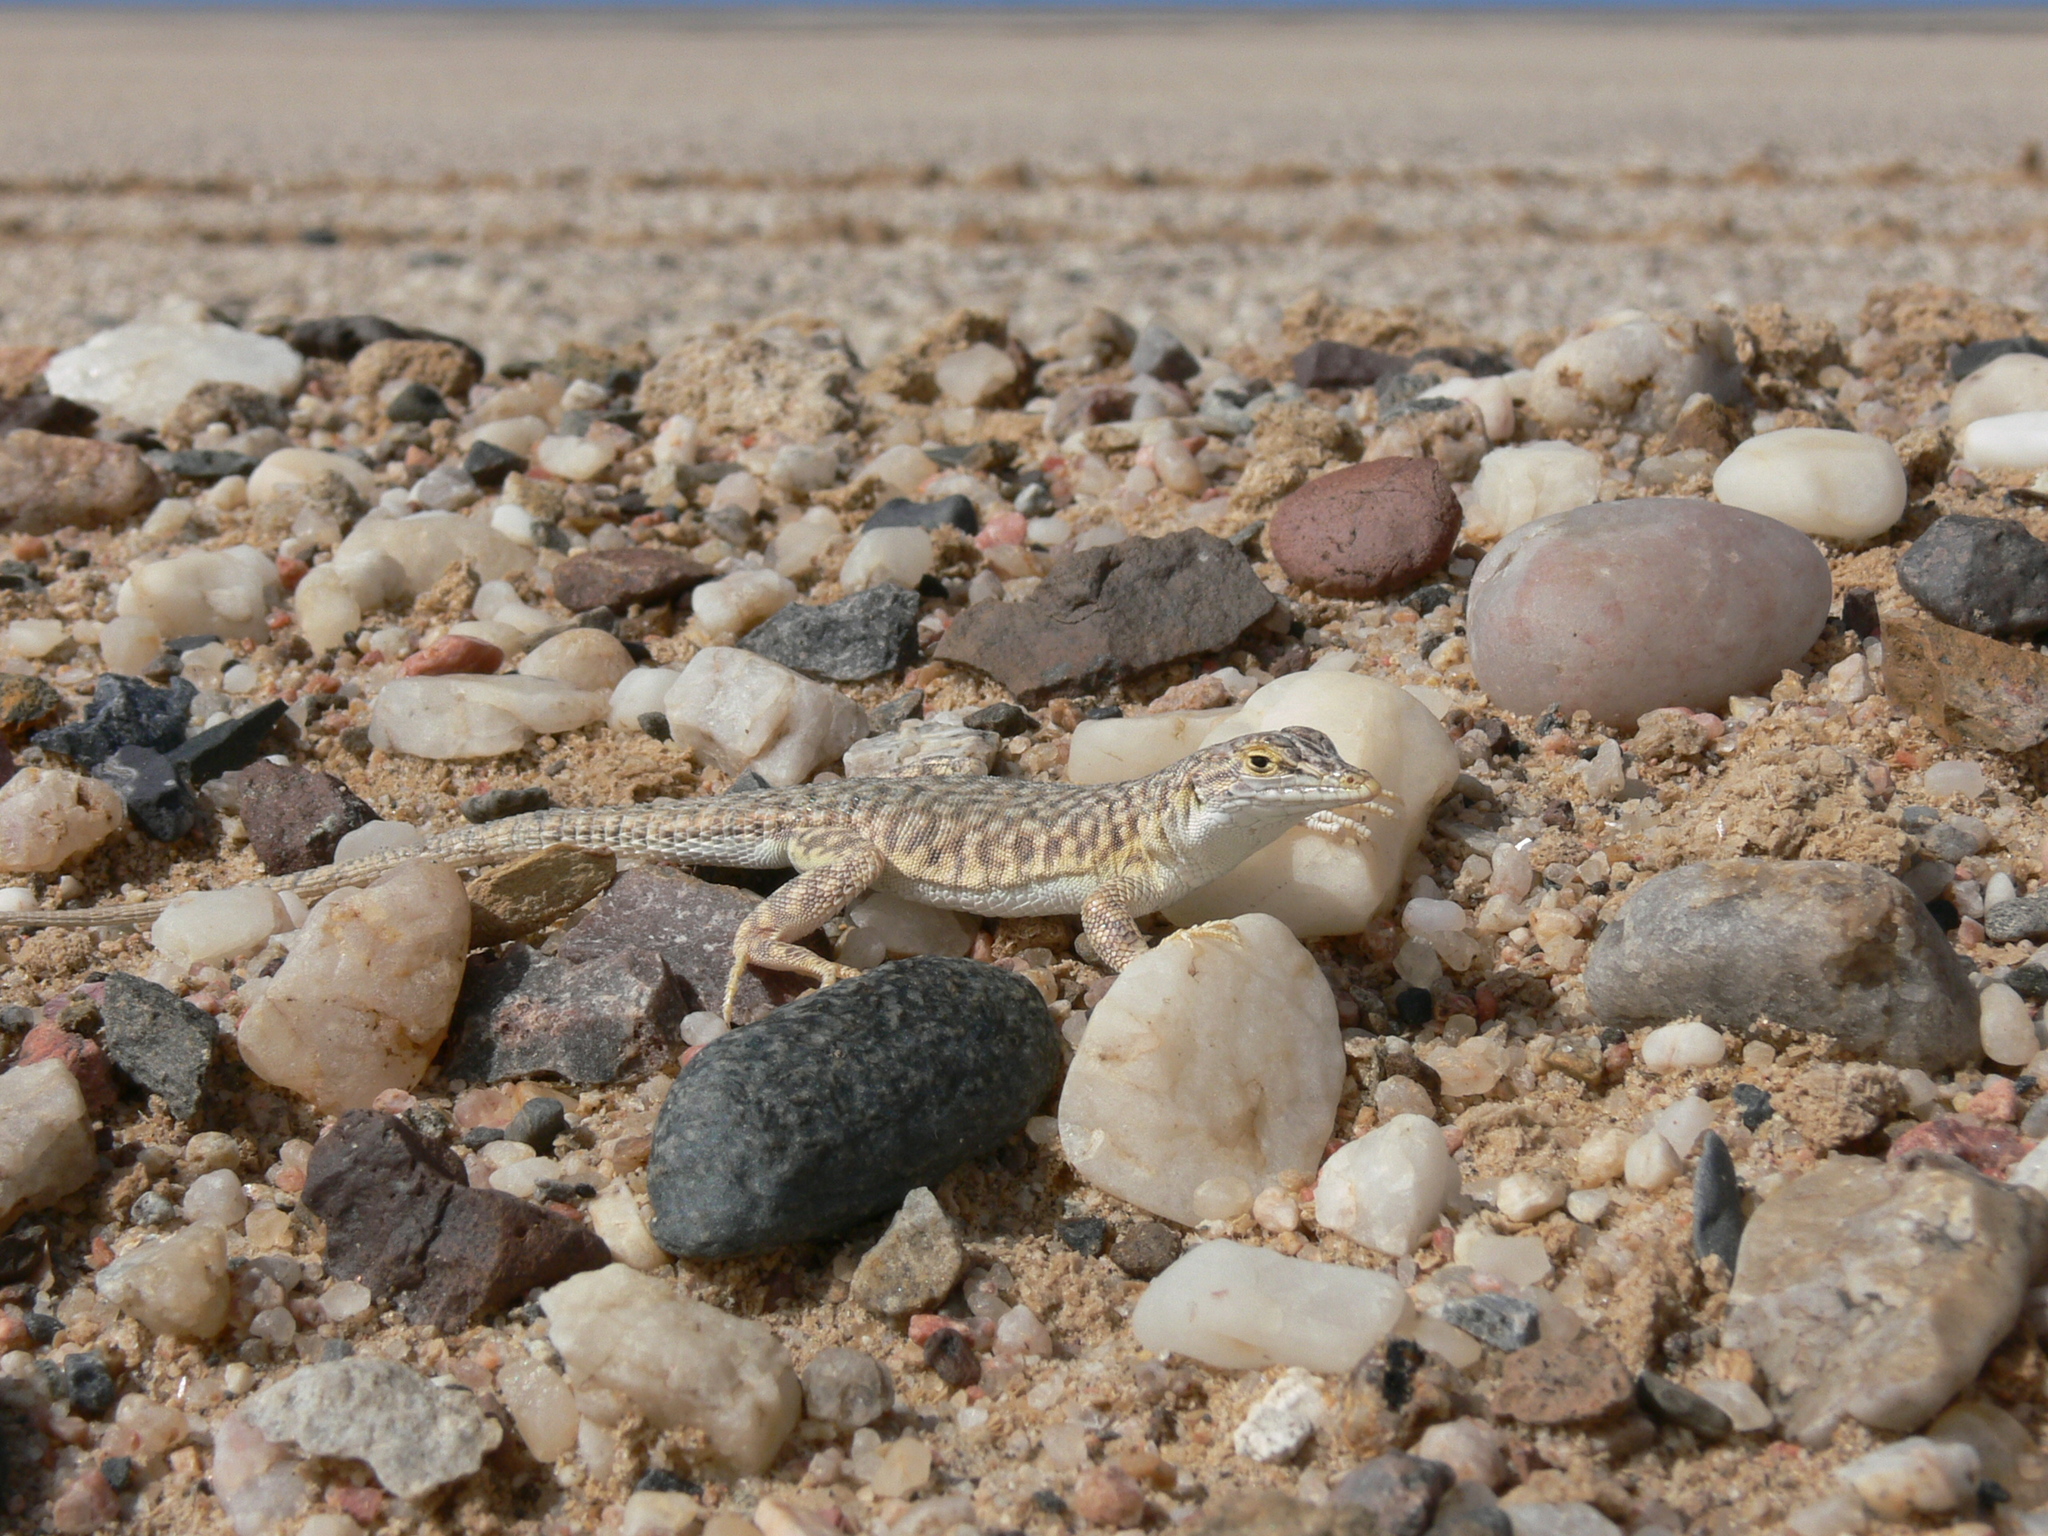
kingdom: Animalia
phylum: Chordata
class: Squamata
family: Lacertidae
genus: Meroles
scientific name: Meroles reticulatus
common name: Reticulate sand lizard
